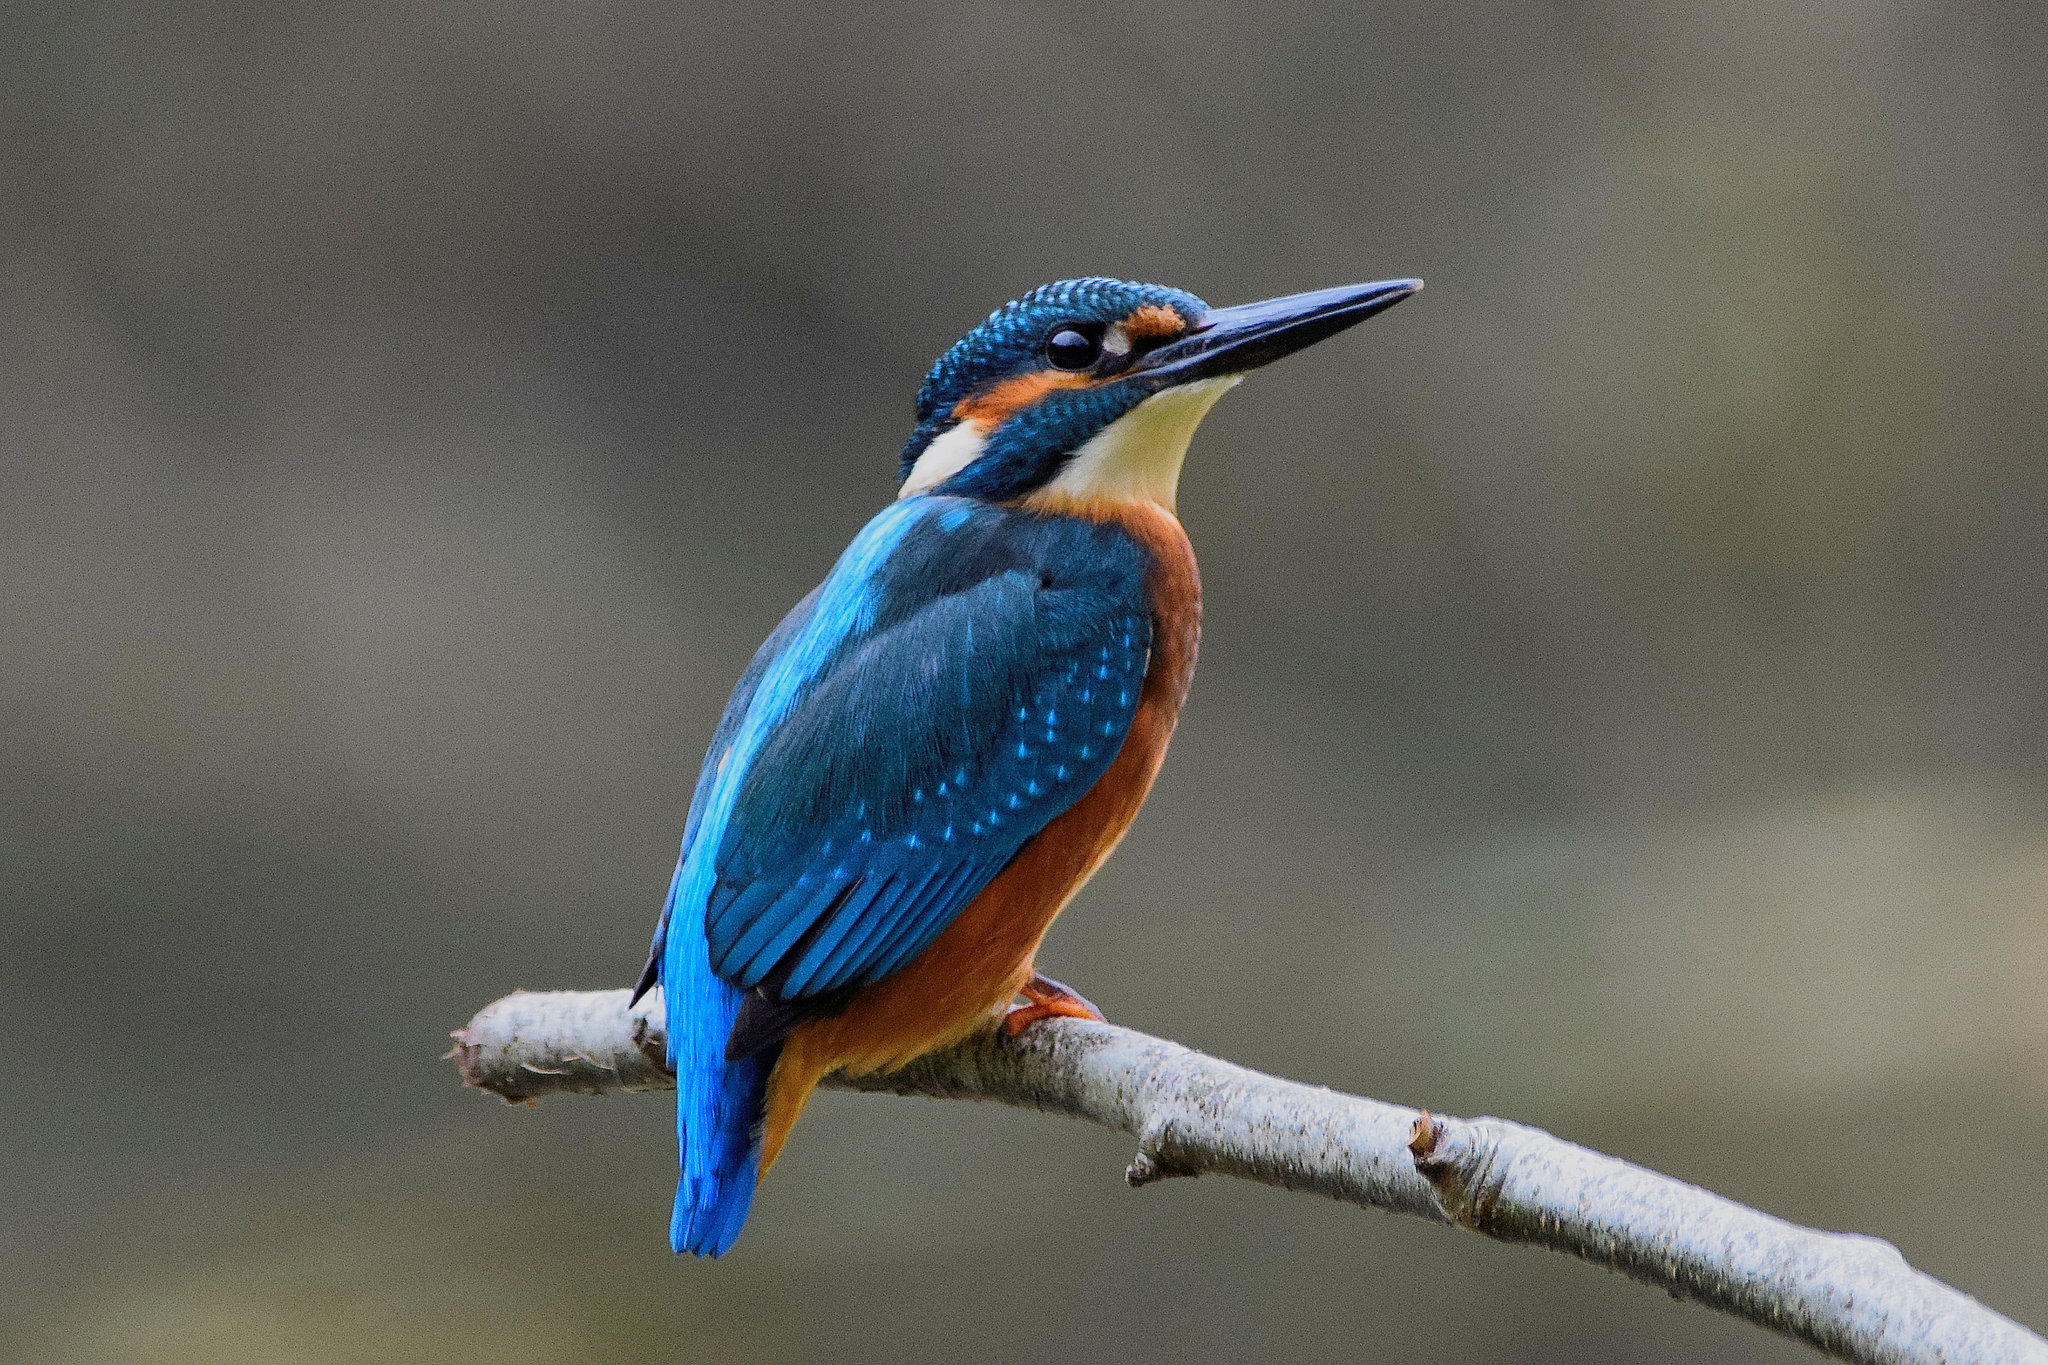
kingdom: Animalia
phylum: Chordata
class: Aves
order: Coraciiformes
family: Alcedinidae
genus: Alcedo
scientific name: Alcedo atthis
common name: Common kingfisher
